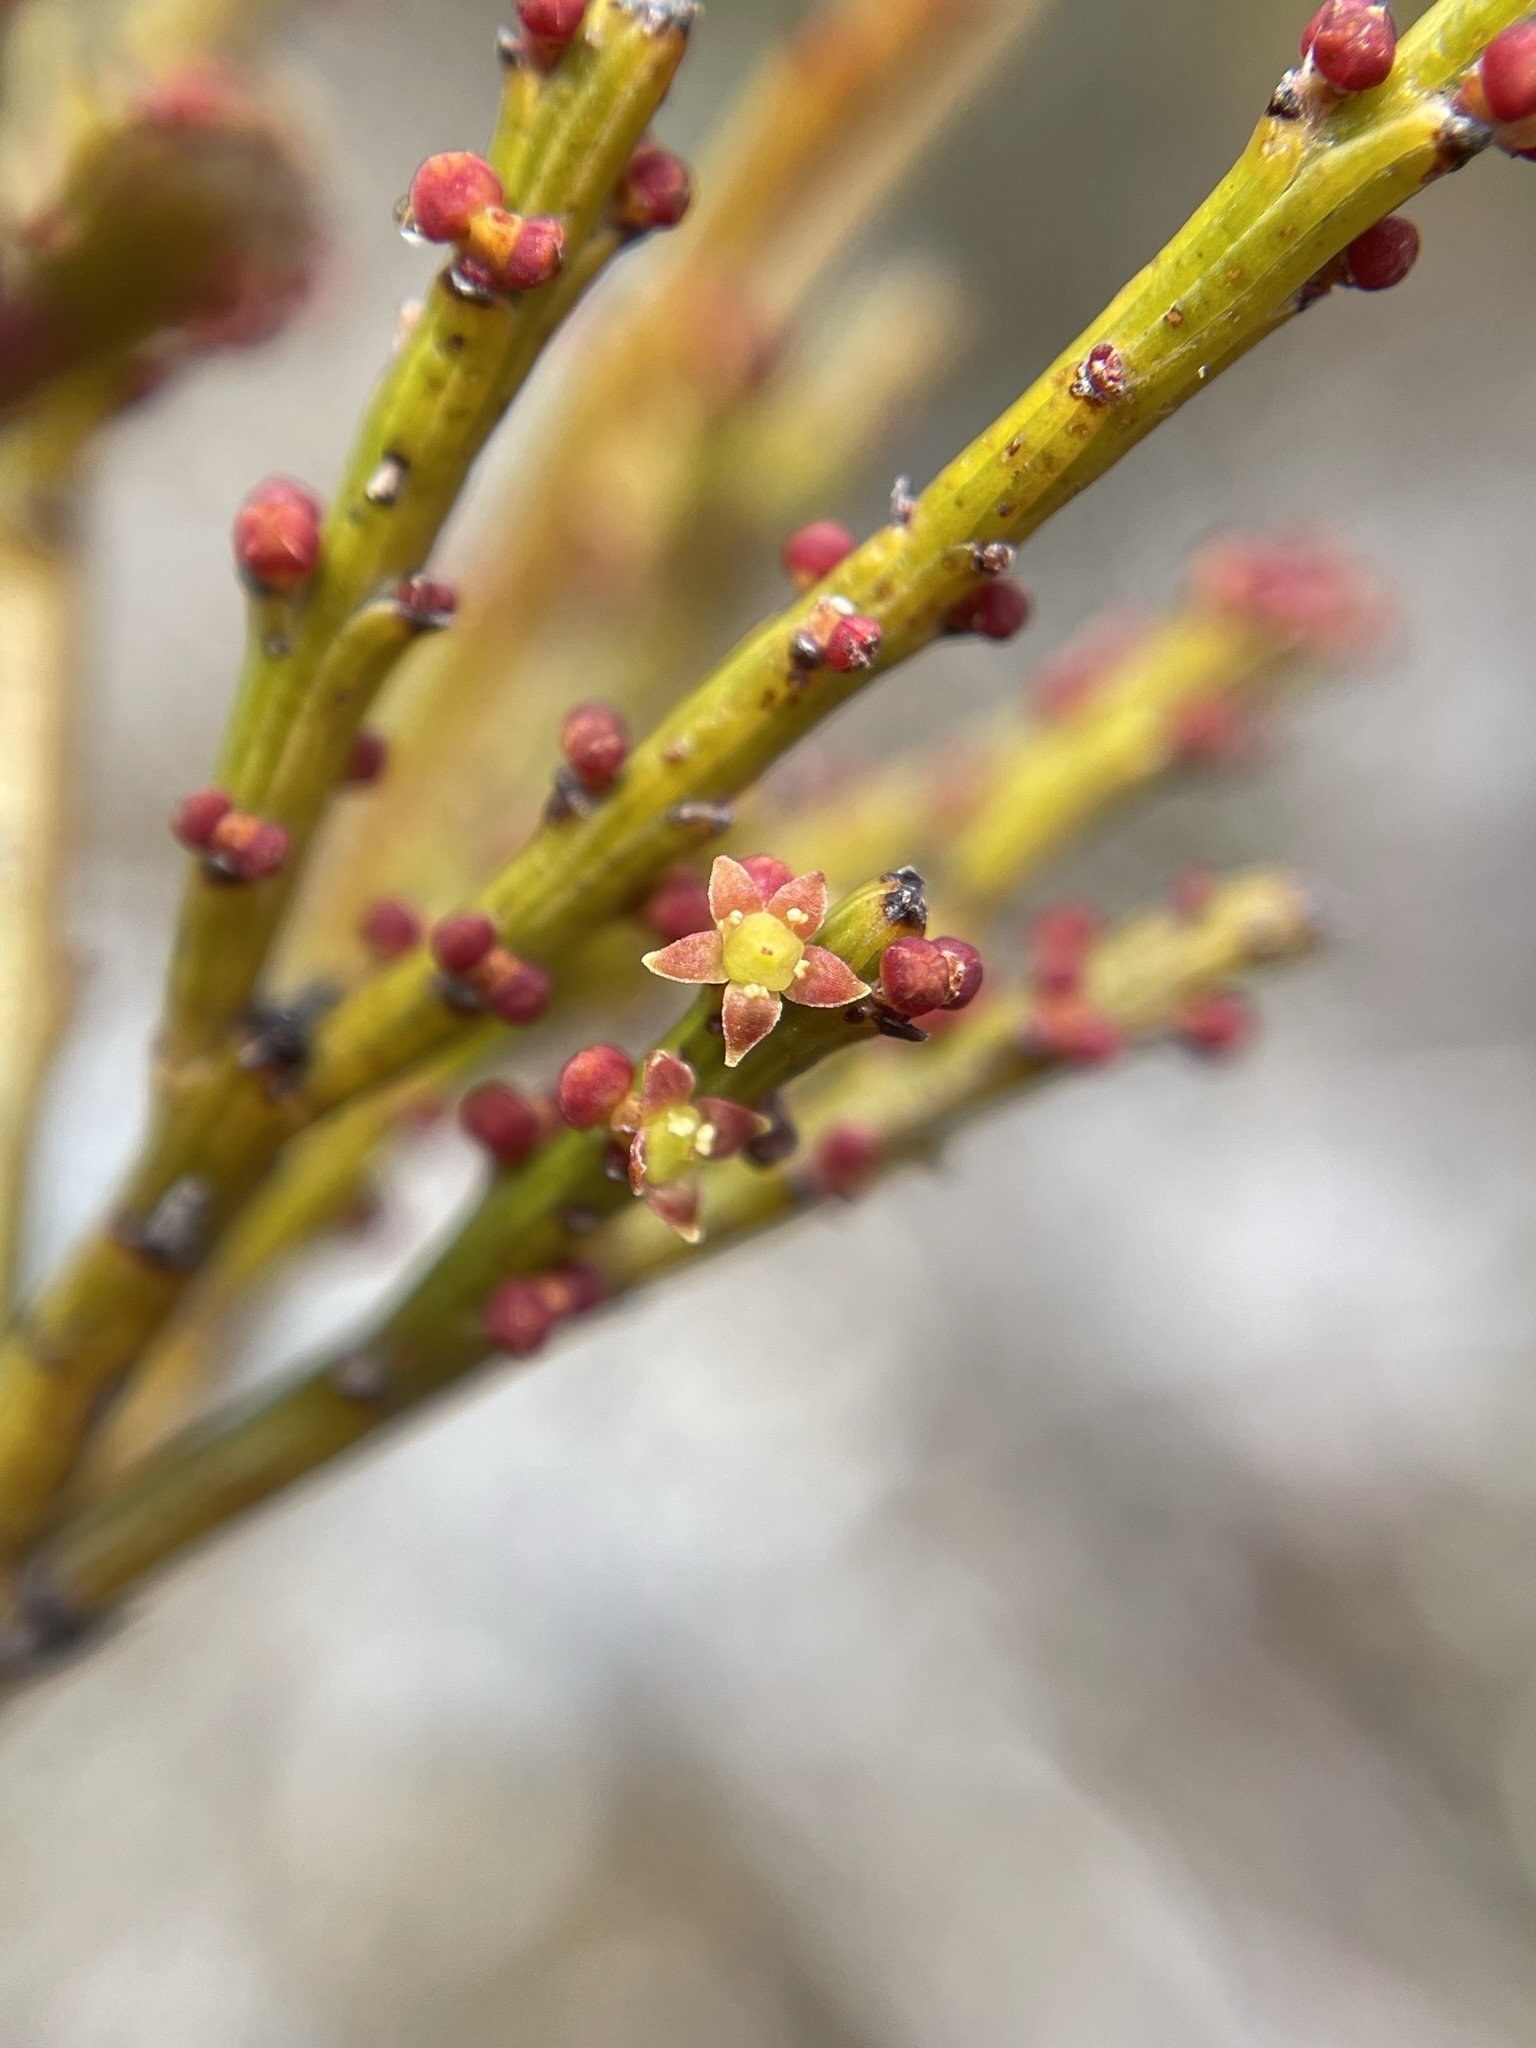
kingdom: Plantae
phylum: Tracheophyta
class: Magnoliopsida
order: Santalales
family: Santalaceae
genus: Exocarpos
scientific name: Exocarpos humifusus
